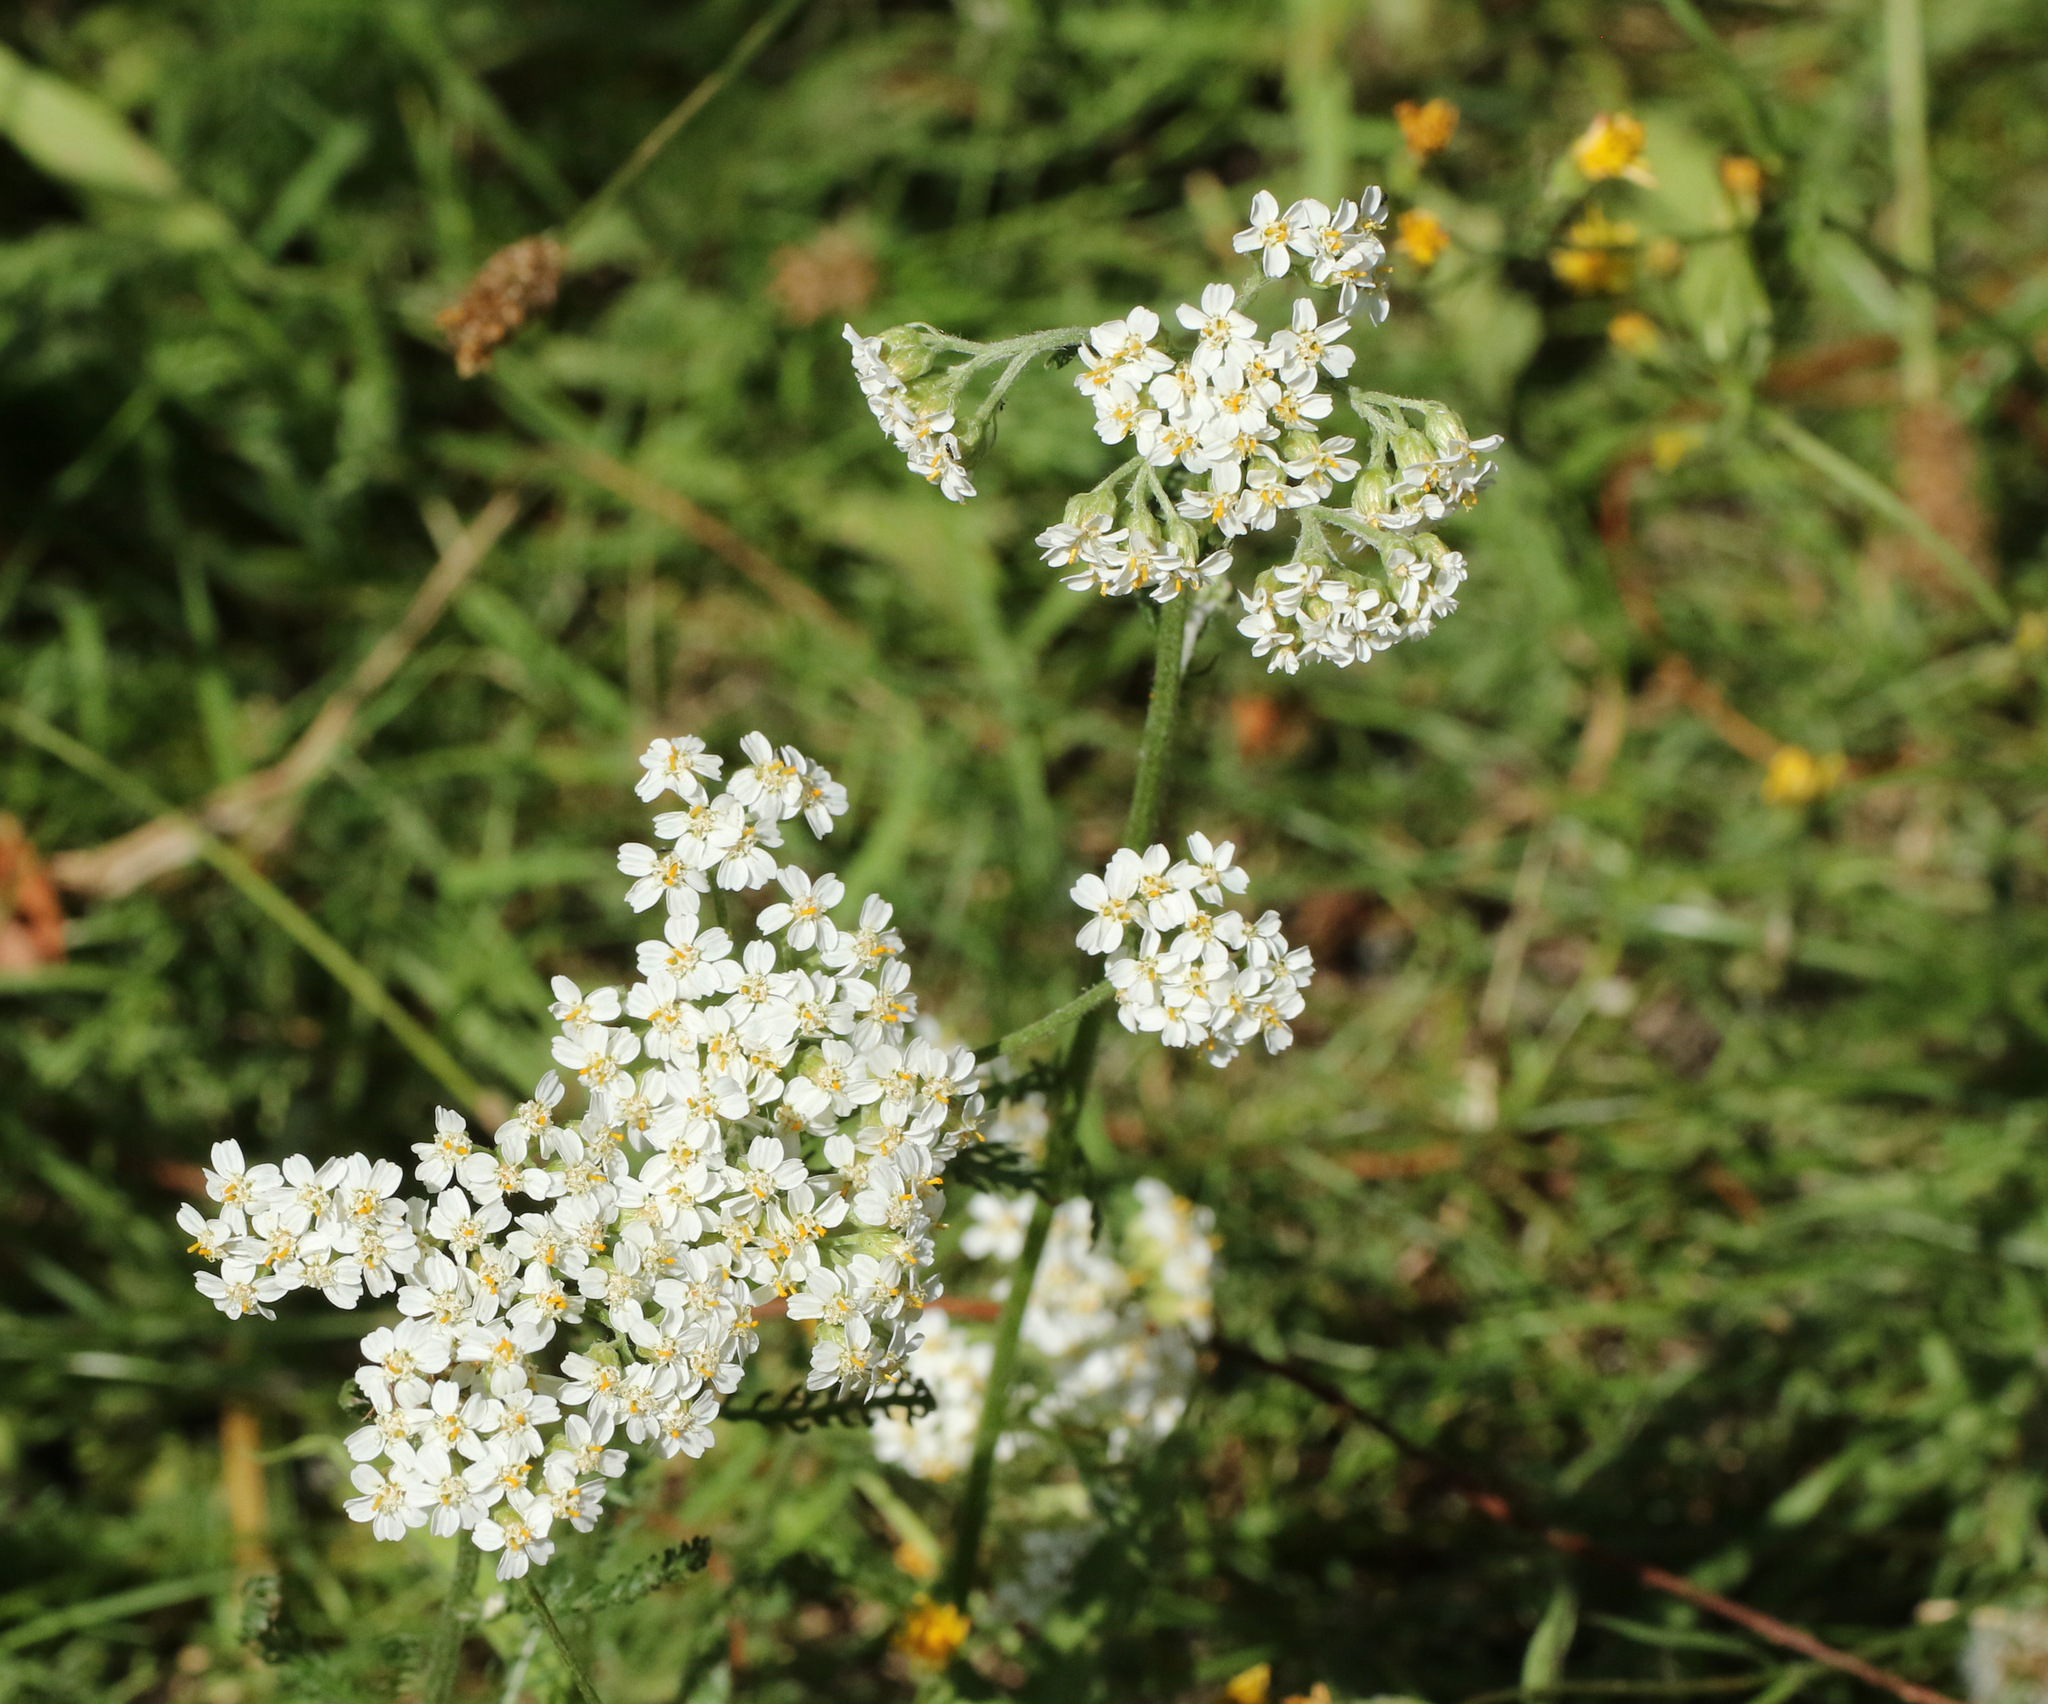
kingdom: Plantae
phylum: Tracheophyta
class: Magnoliopsida
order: Asterales
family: Asteraceae
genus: Achillea
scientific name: Achillea millefolium
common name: Yarrow
